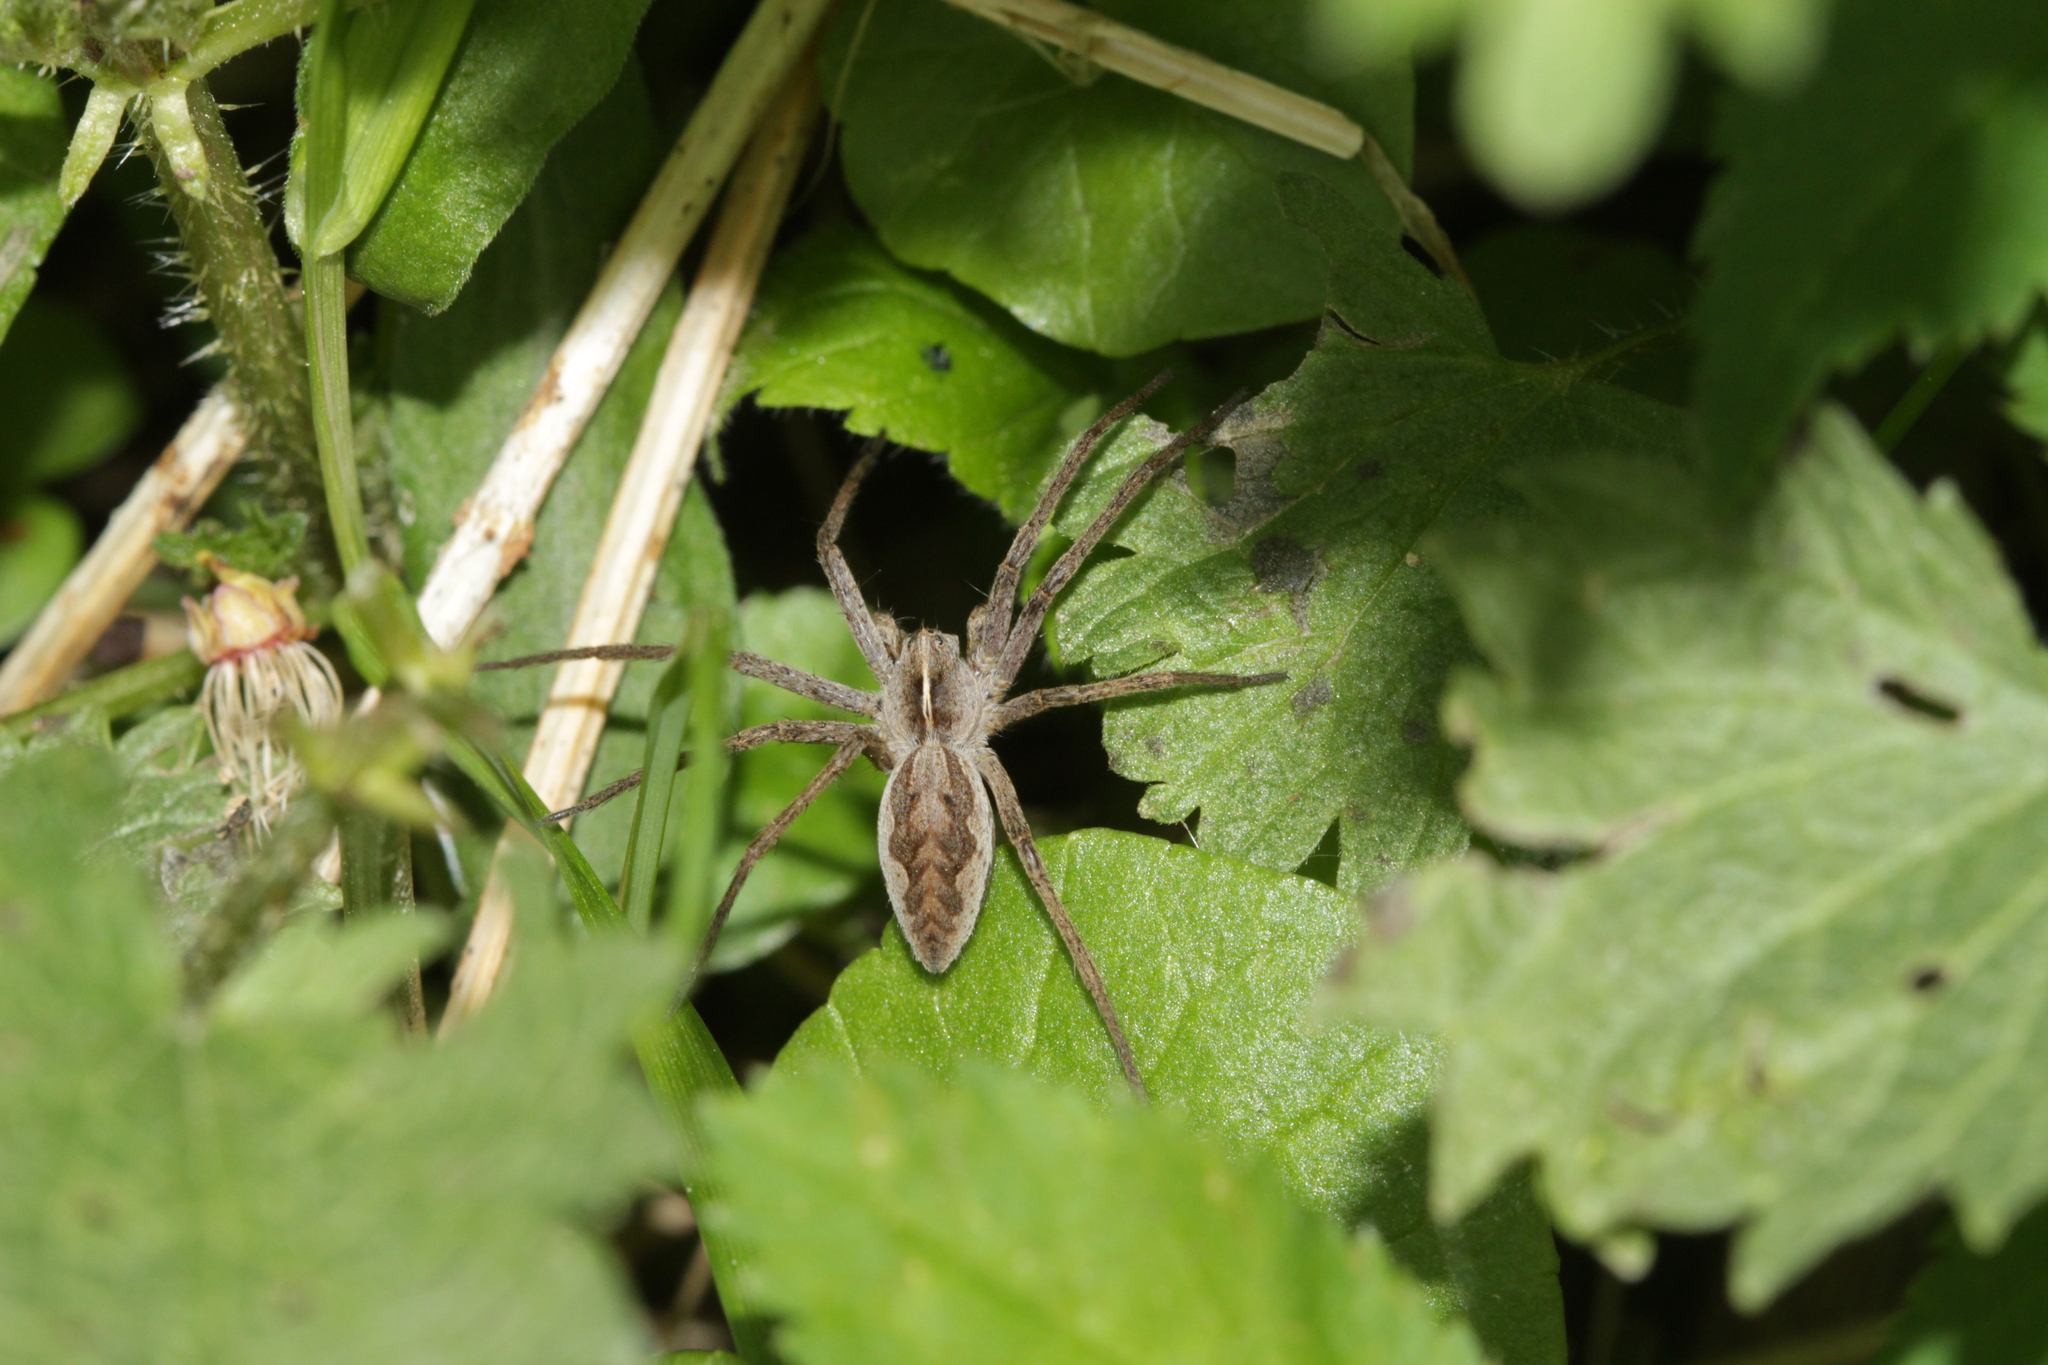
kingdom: Animalia
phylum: Arthropoda
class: Arachnida
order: Araneae
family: Pisauridae
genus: Pisaura
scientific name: Pisaura mirabilis
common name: Tent spider
